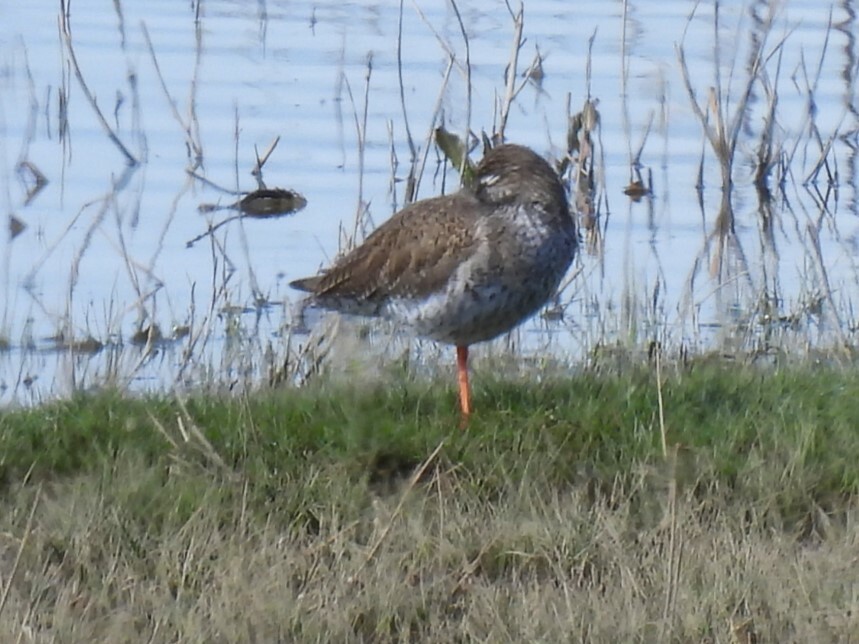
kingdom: Animalia
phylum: Chordata
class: Aves
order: Charadriiformes
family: Scolopacidae
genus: Tringa
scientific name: Tringa totanus
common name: Common redshank
